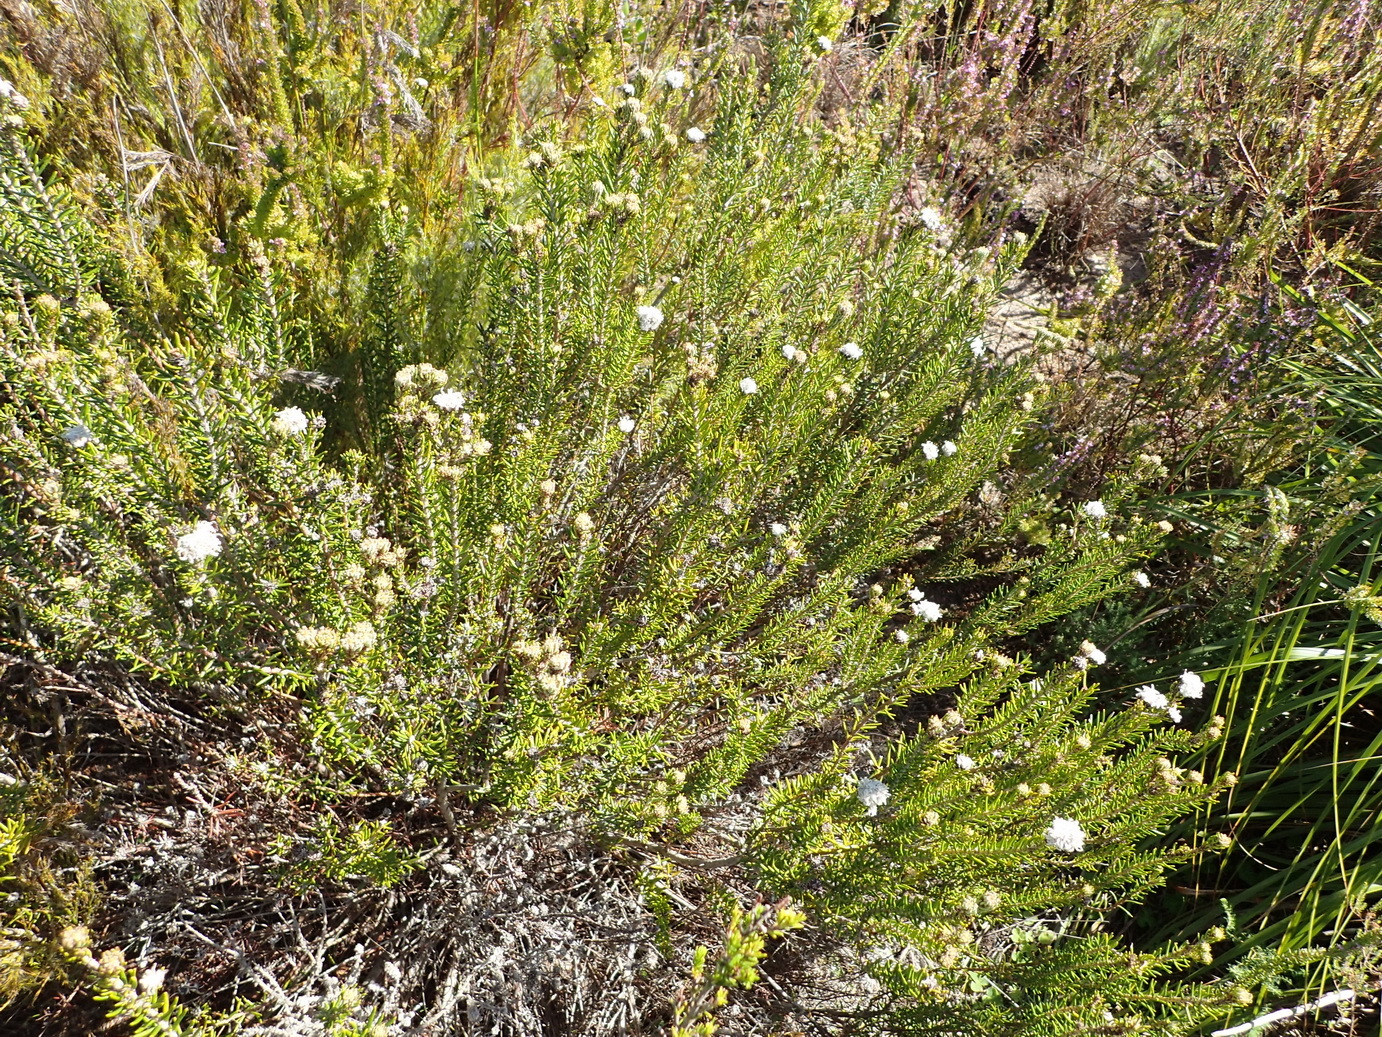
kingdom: Plantae
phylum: Tracheophyta
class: Magnoliopsida
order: Rosales
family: Rhamnaceae
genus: Trichocephalus
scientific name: Trichocephalus stipularis
